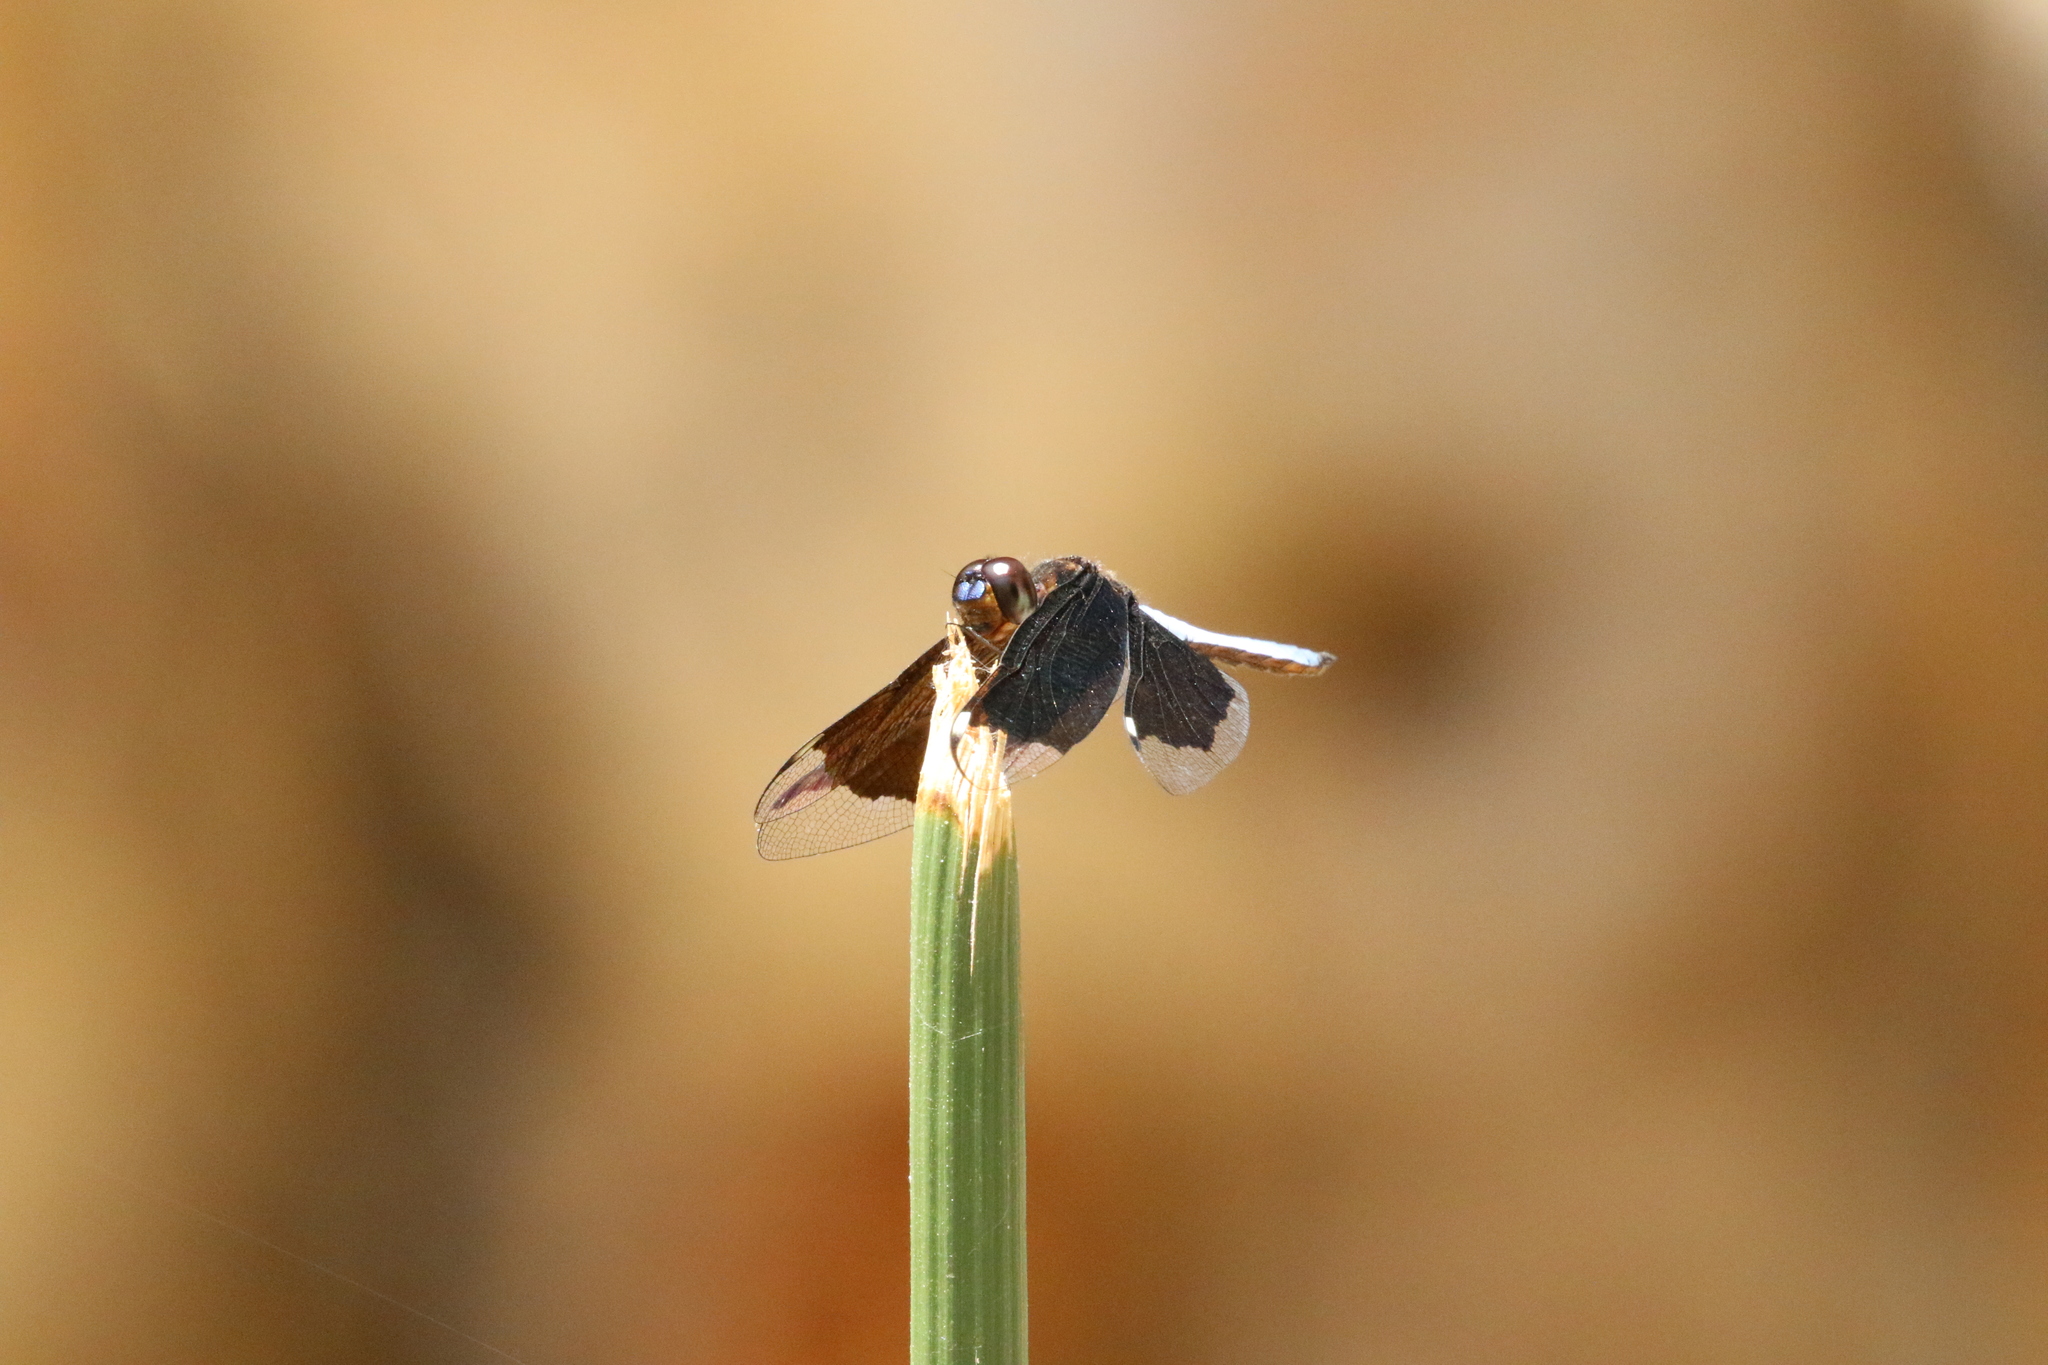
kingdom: Animalia
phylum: Arthropoda
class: Insecta
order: Odonata
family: Libellulidae
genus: Palpopleura
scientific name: Palpopleura lucia
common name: Lucia widow
